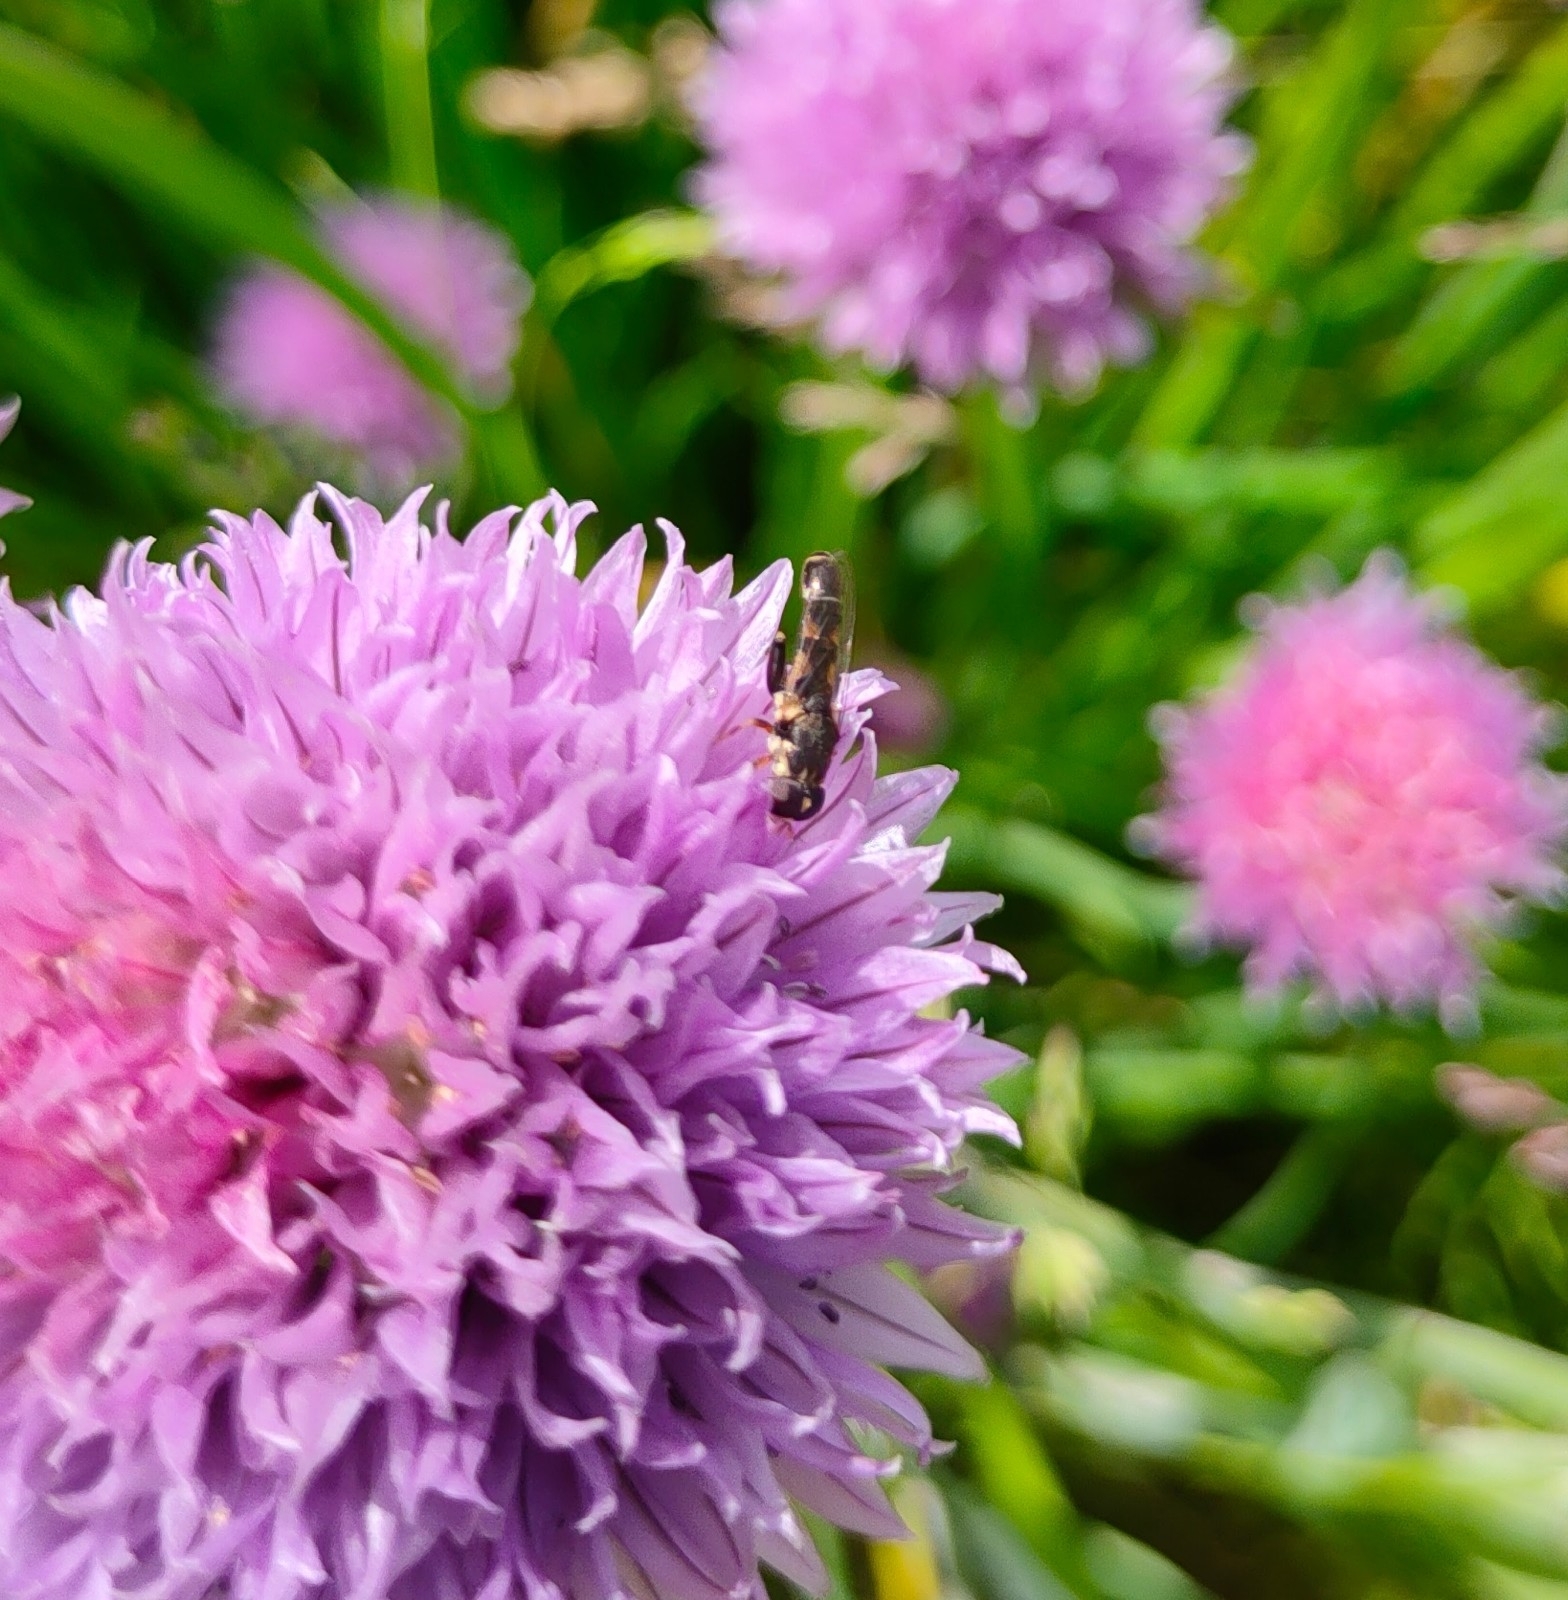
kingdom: Animalia
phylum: Arthropoda
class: Insecta
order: Diptera
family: Syrphidae
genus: Syritta
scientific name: Syritta pipiens
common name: Hover fly
